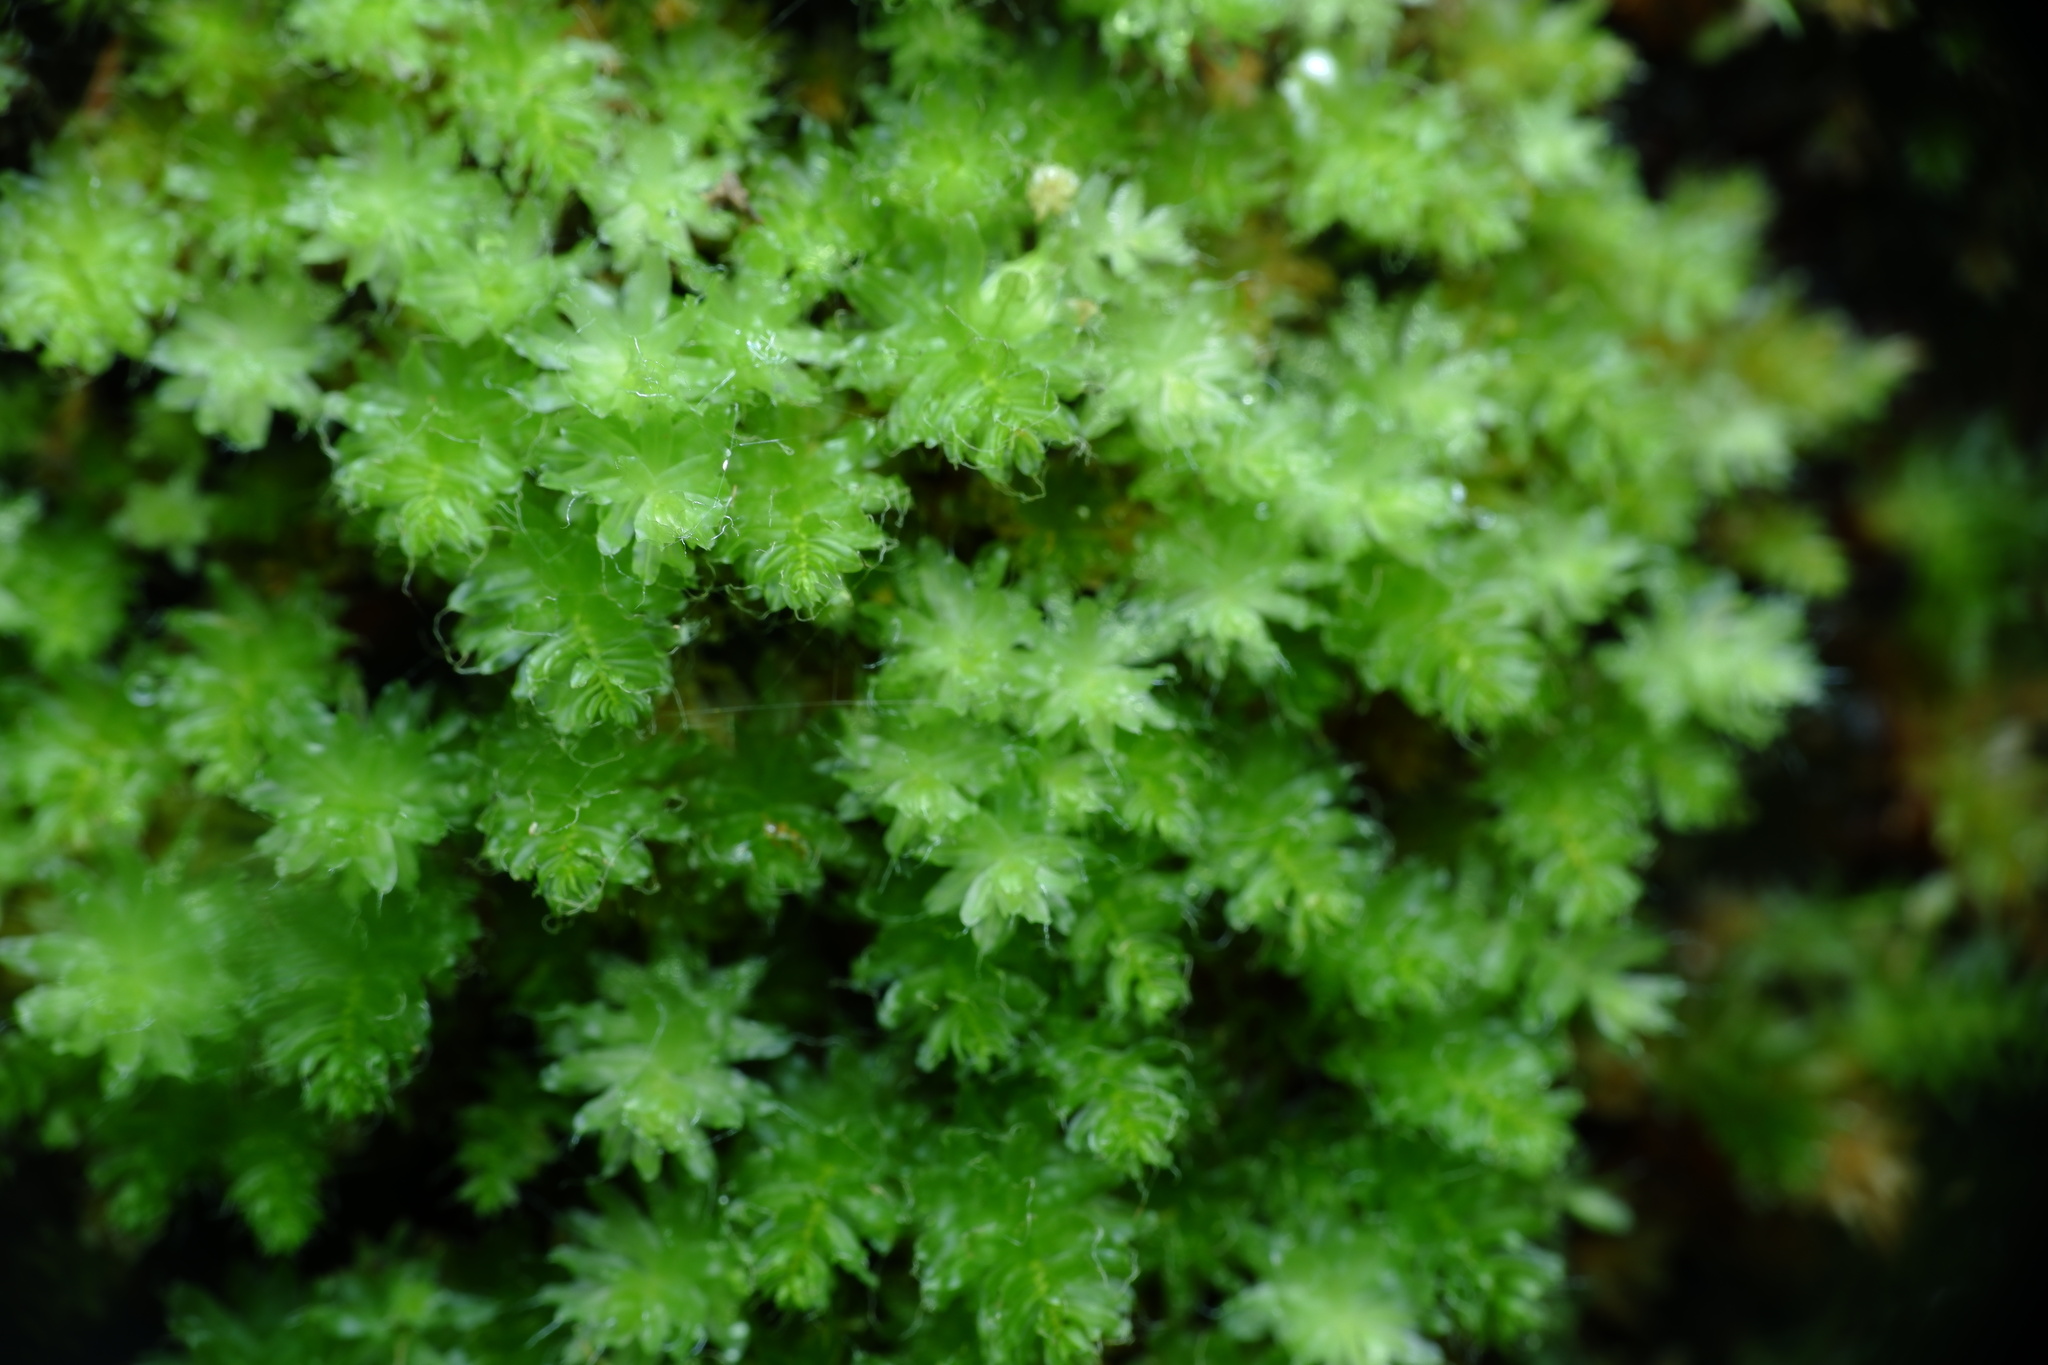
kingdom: Plantae
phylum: Bryophyta
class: Bryopsida
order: Bryales
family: Leptostomataceae
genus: Leptostomum
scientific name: Leptostomum inclinans
